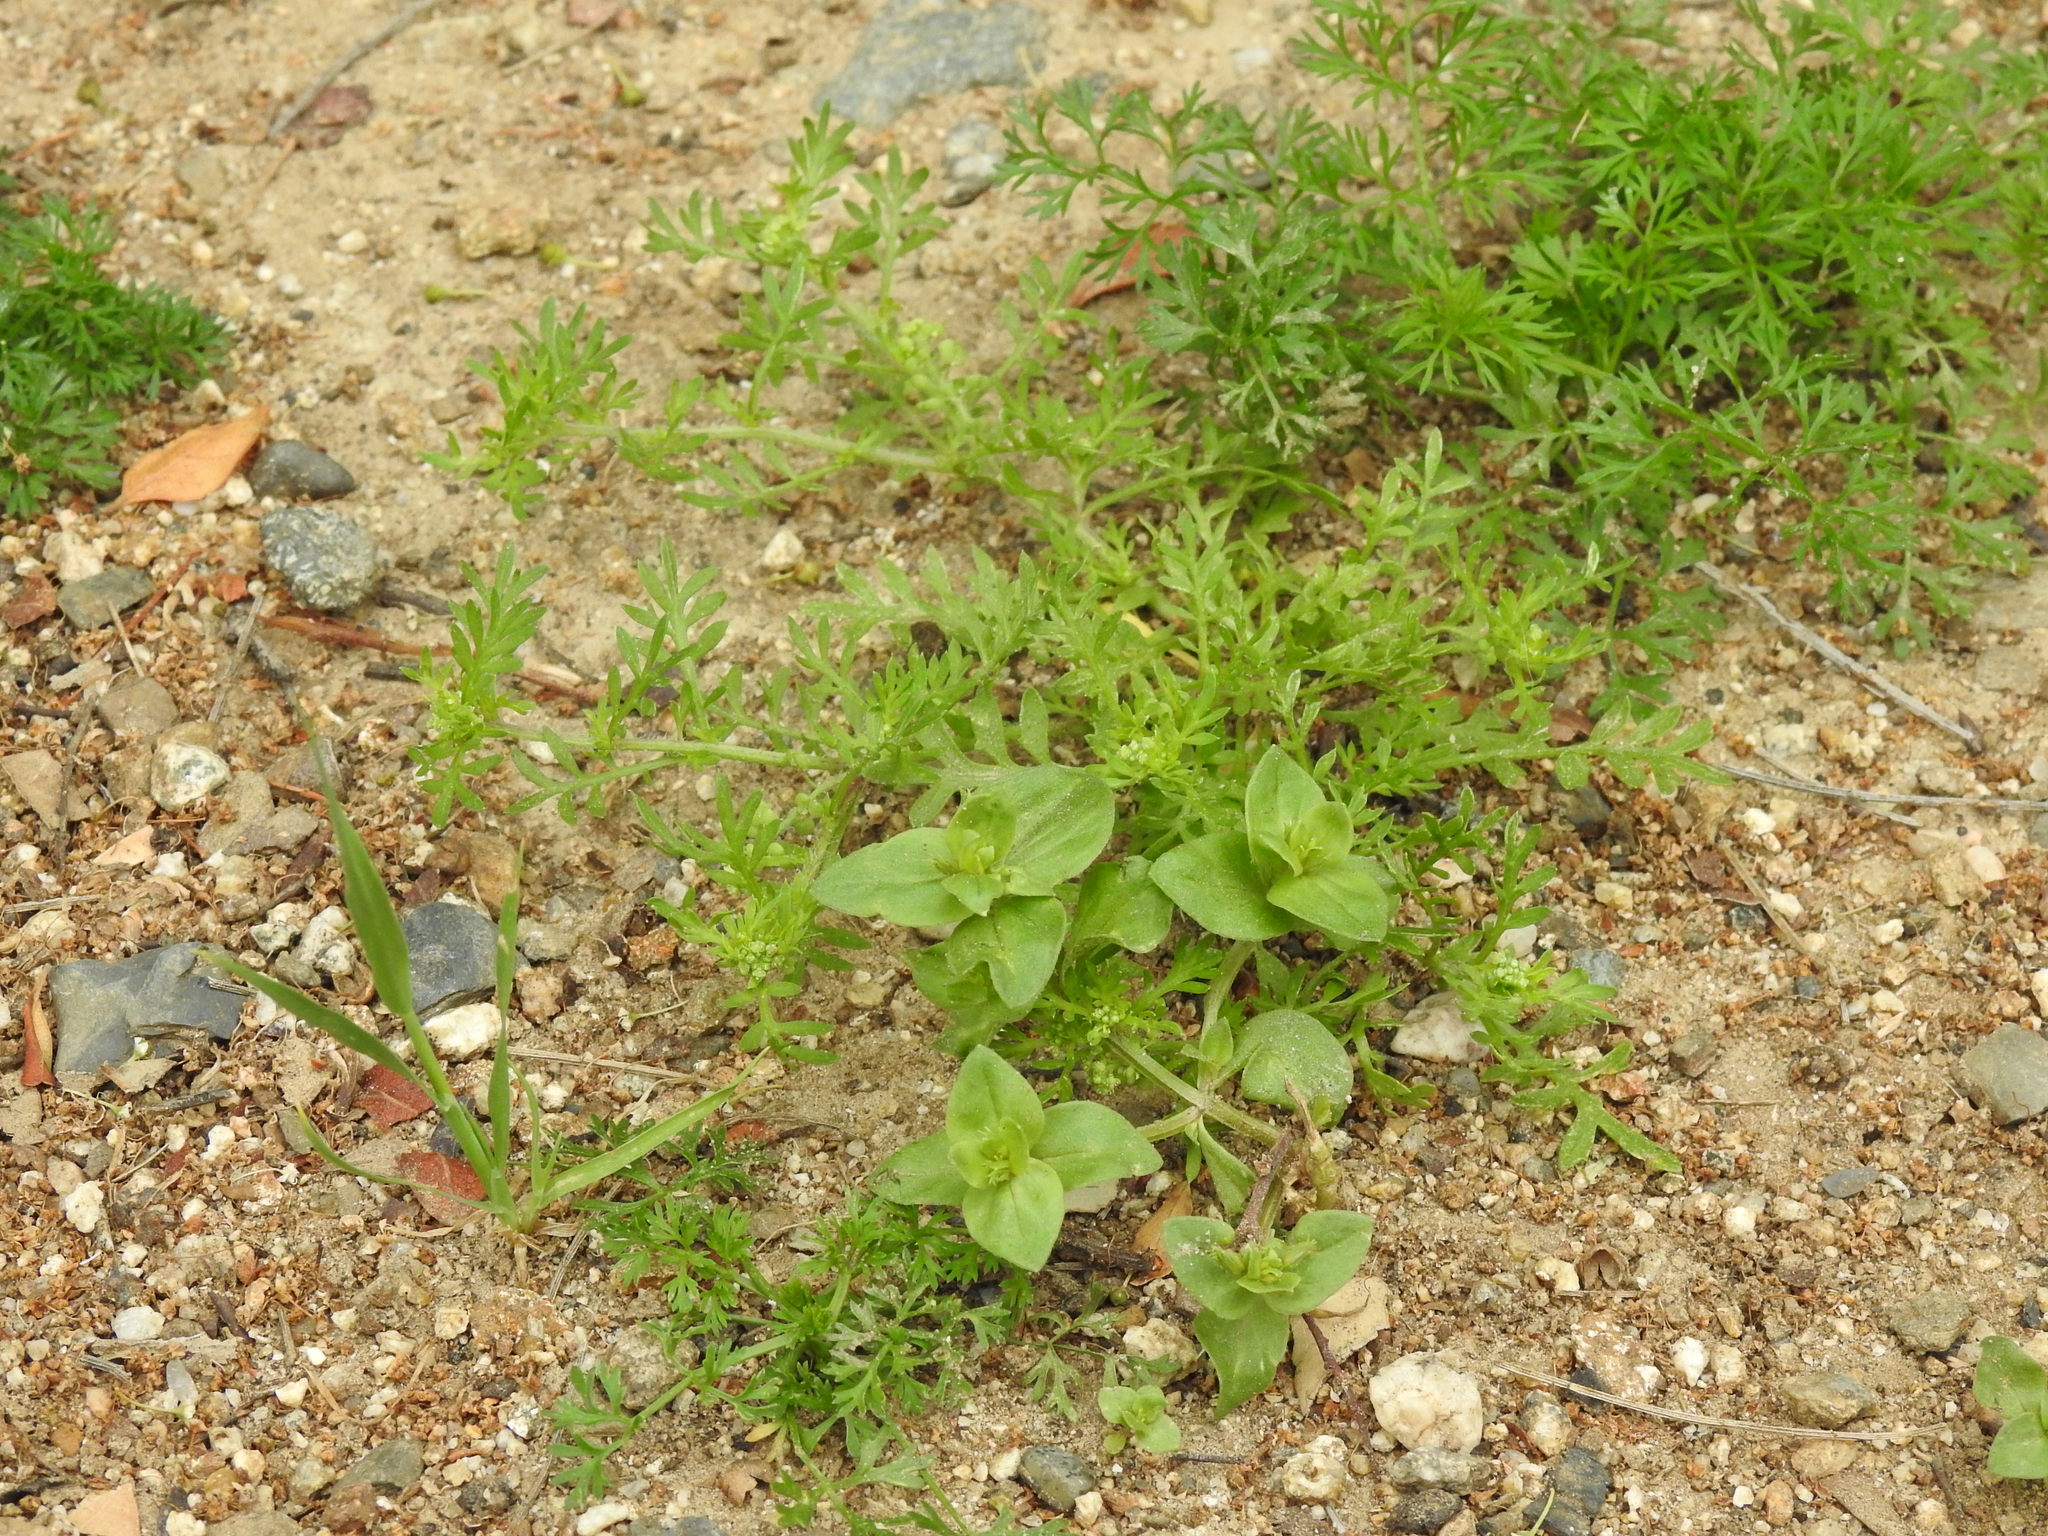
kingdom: Plantae
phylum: Tracheophyta
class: Magnoliopsida
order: Ericales
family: Primulaceae
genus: Lysimachia
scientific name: Lysimachia arvensis
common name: Scarlet pimpernel
